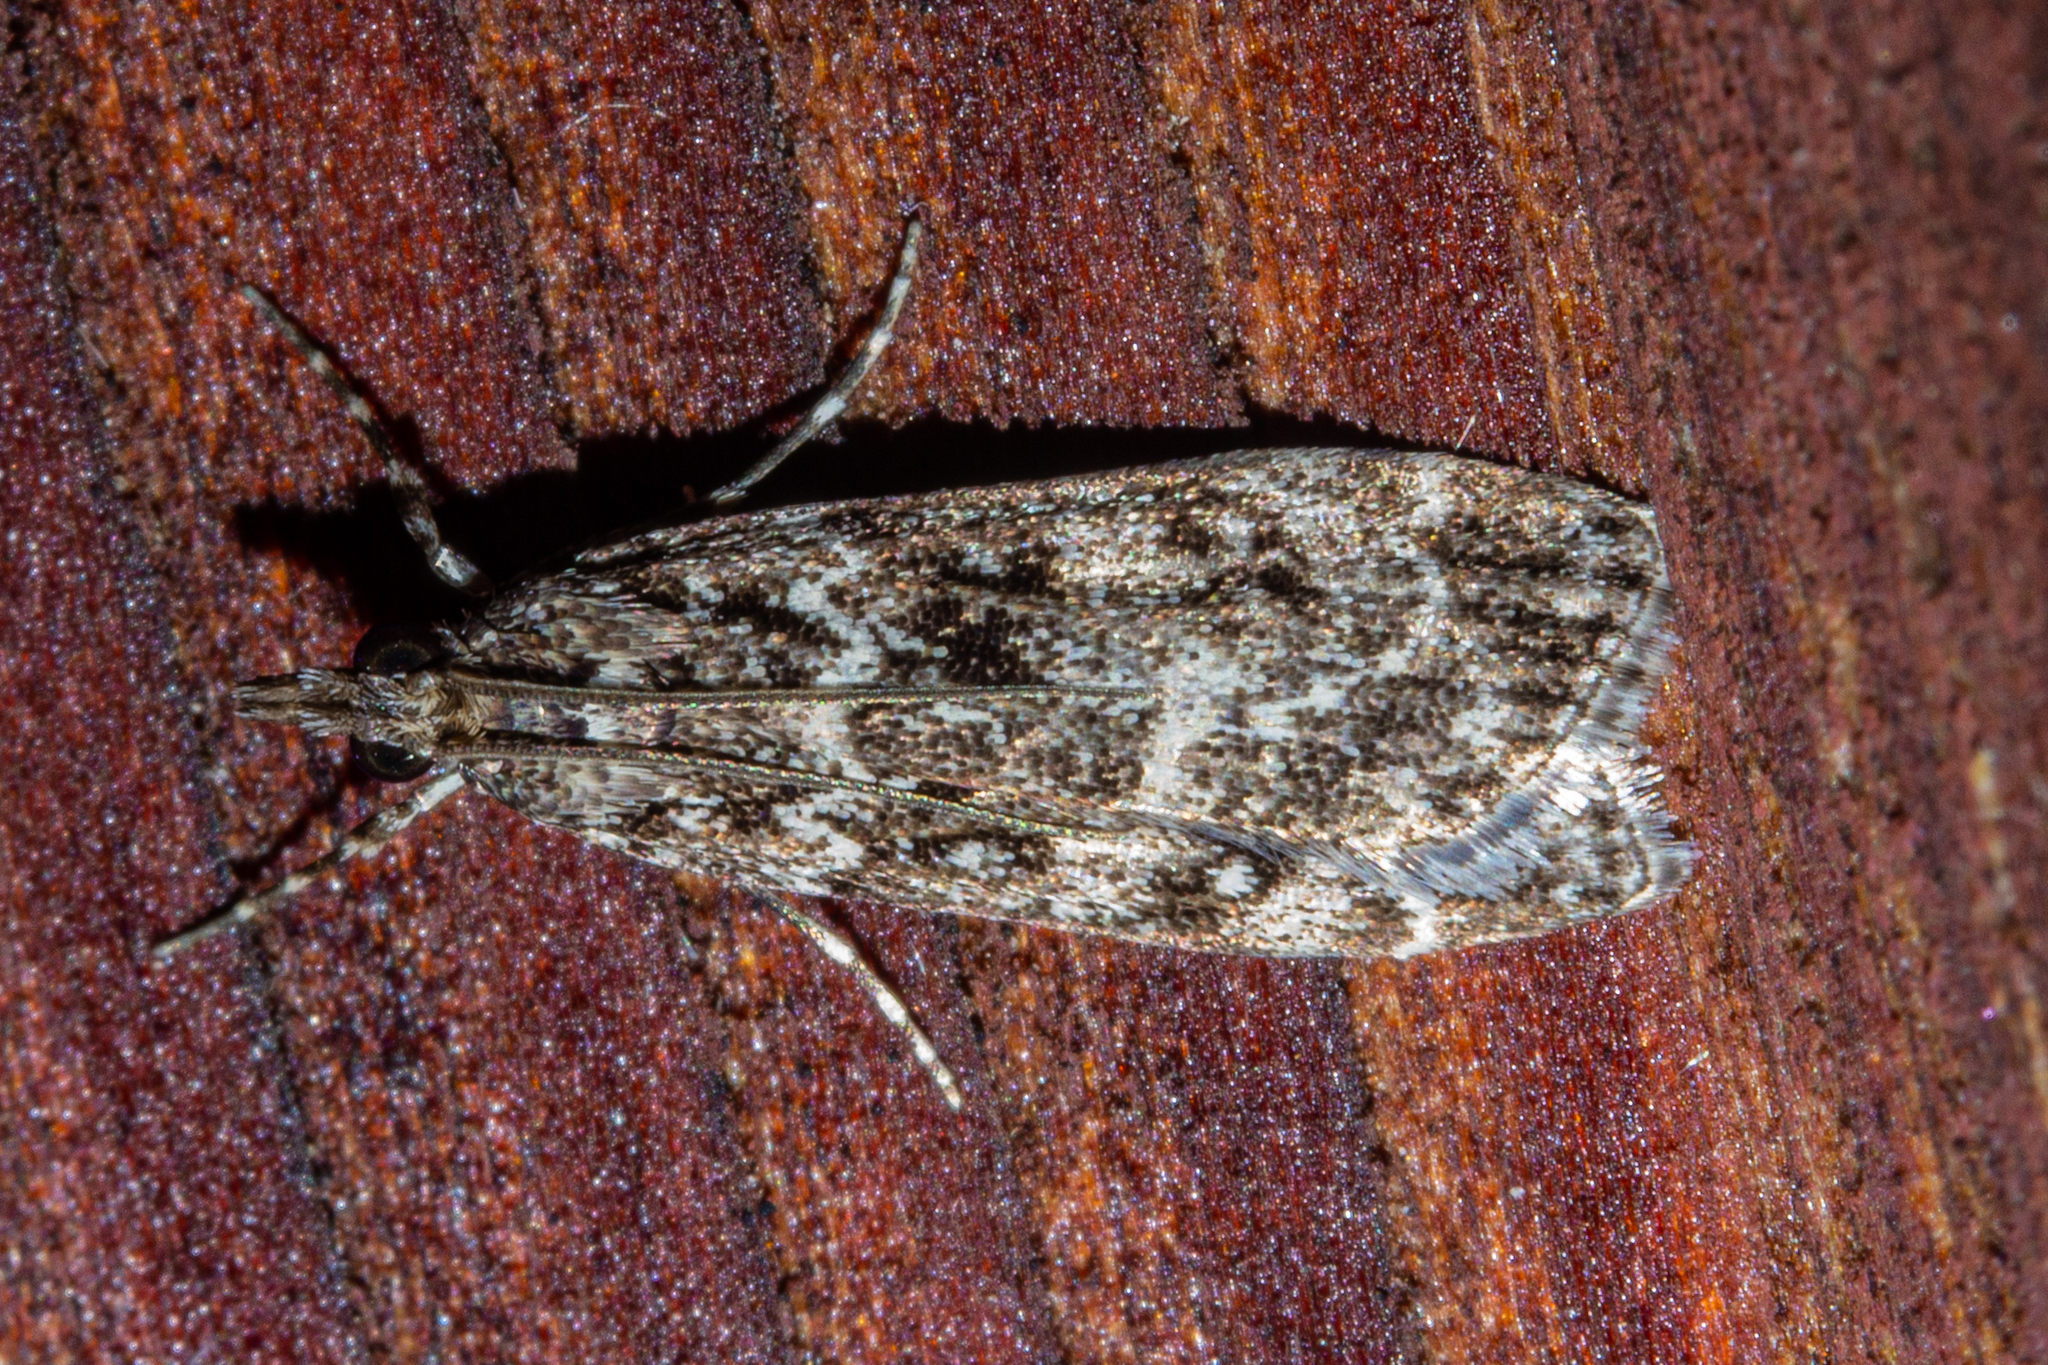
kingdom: Animalia
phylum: Arthropoda
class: Insecta
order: Lepidoptera
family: Crambidae
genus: Eudonia
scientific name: Eudonia philerga
